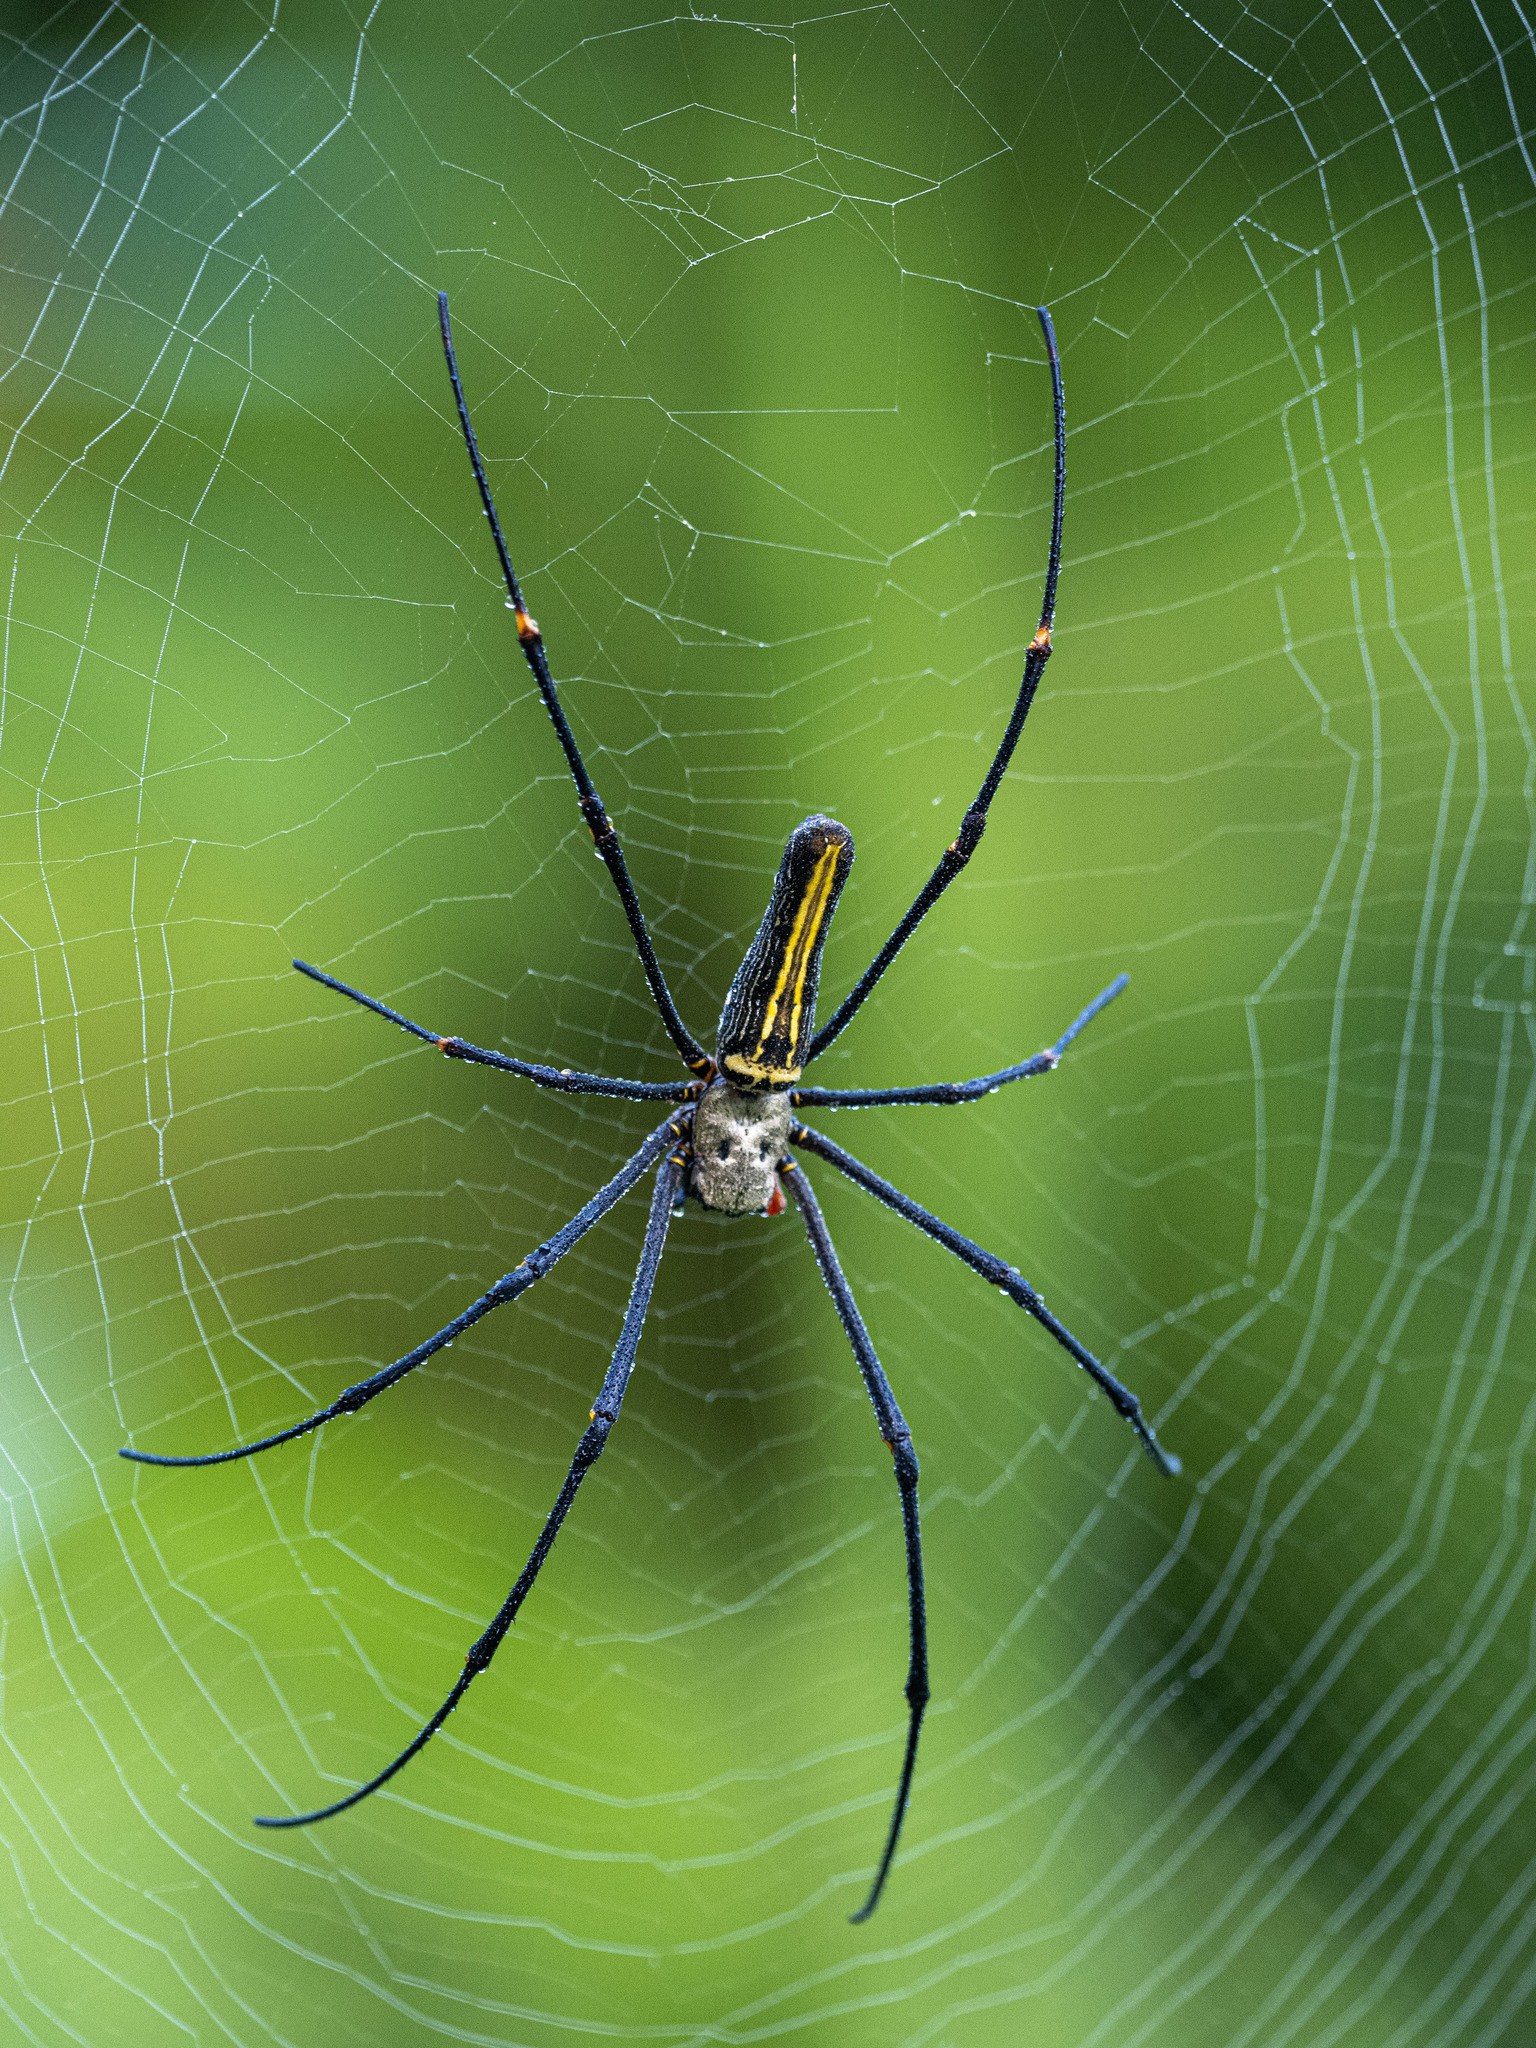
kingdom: Animalia
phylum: Arthropoda
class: Arachnida
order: Araneae
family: Araneidae
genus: Nephila
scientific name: Nephila pilipes
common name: Giant golden orb weaver
